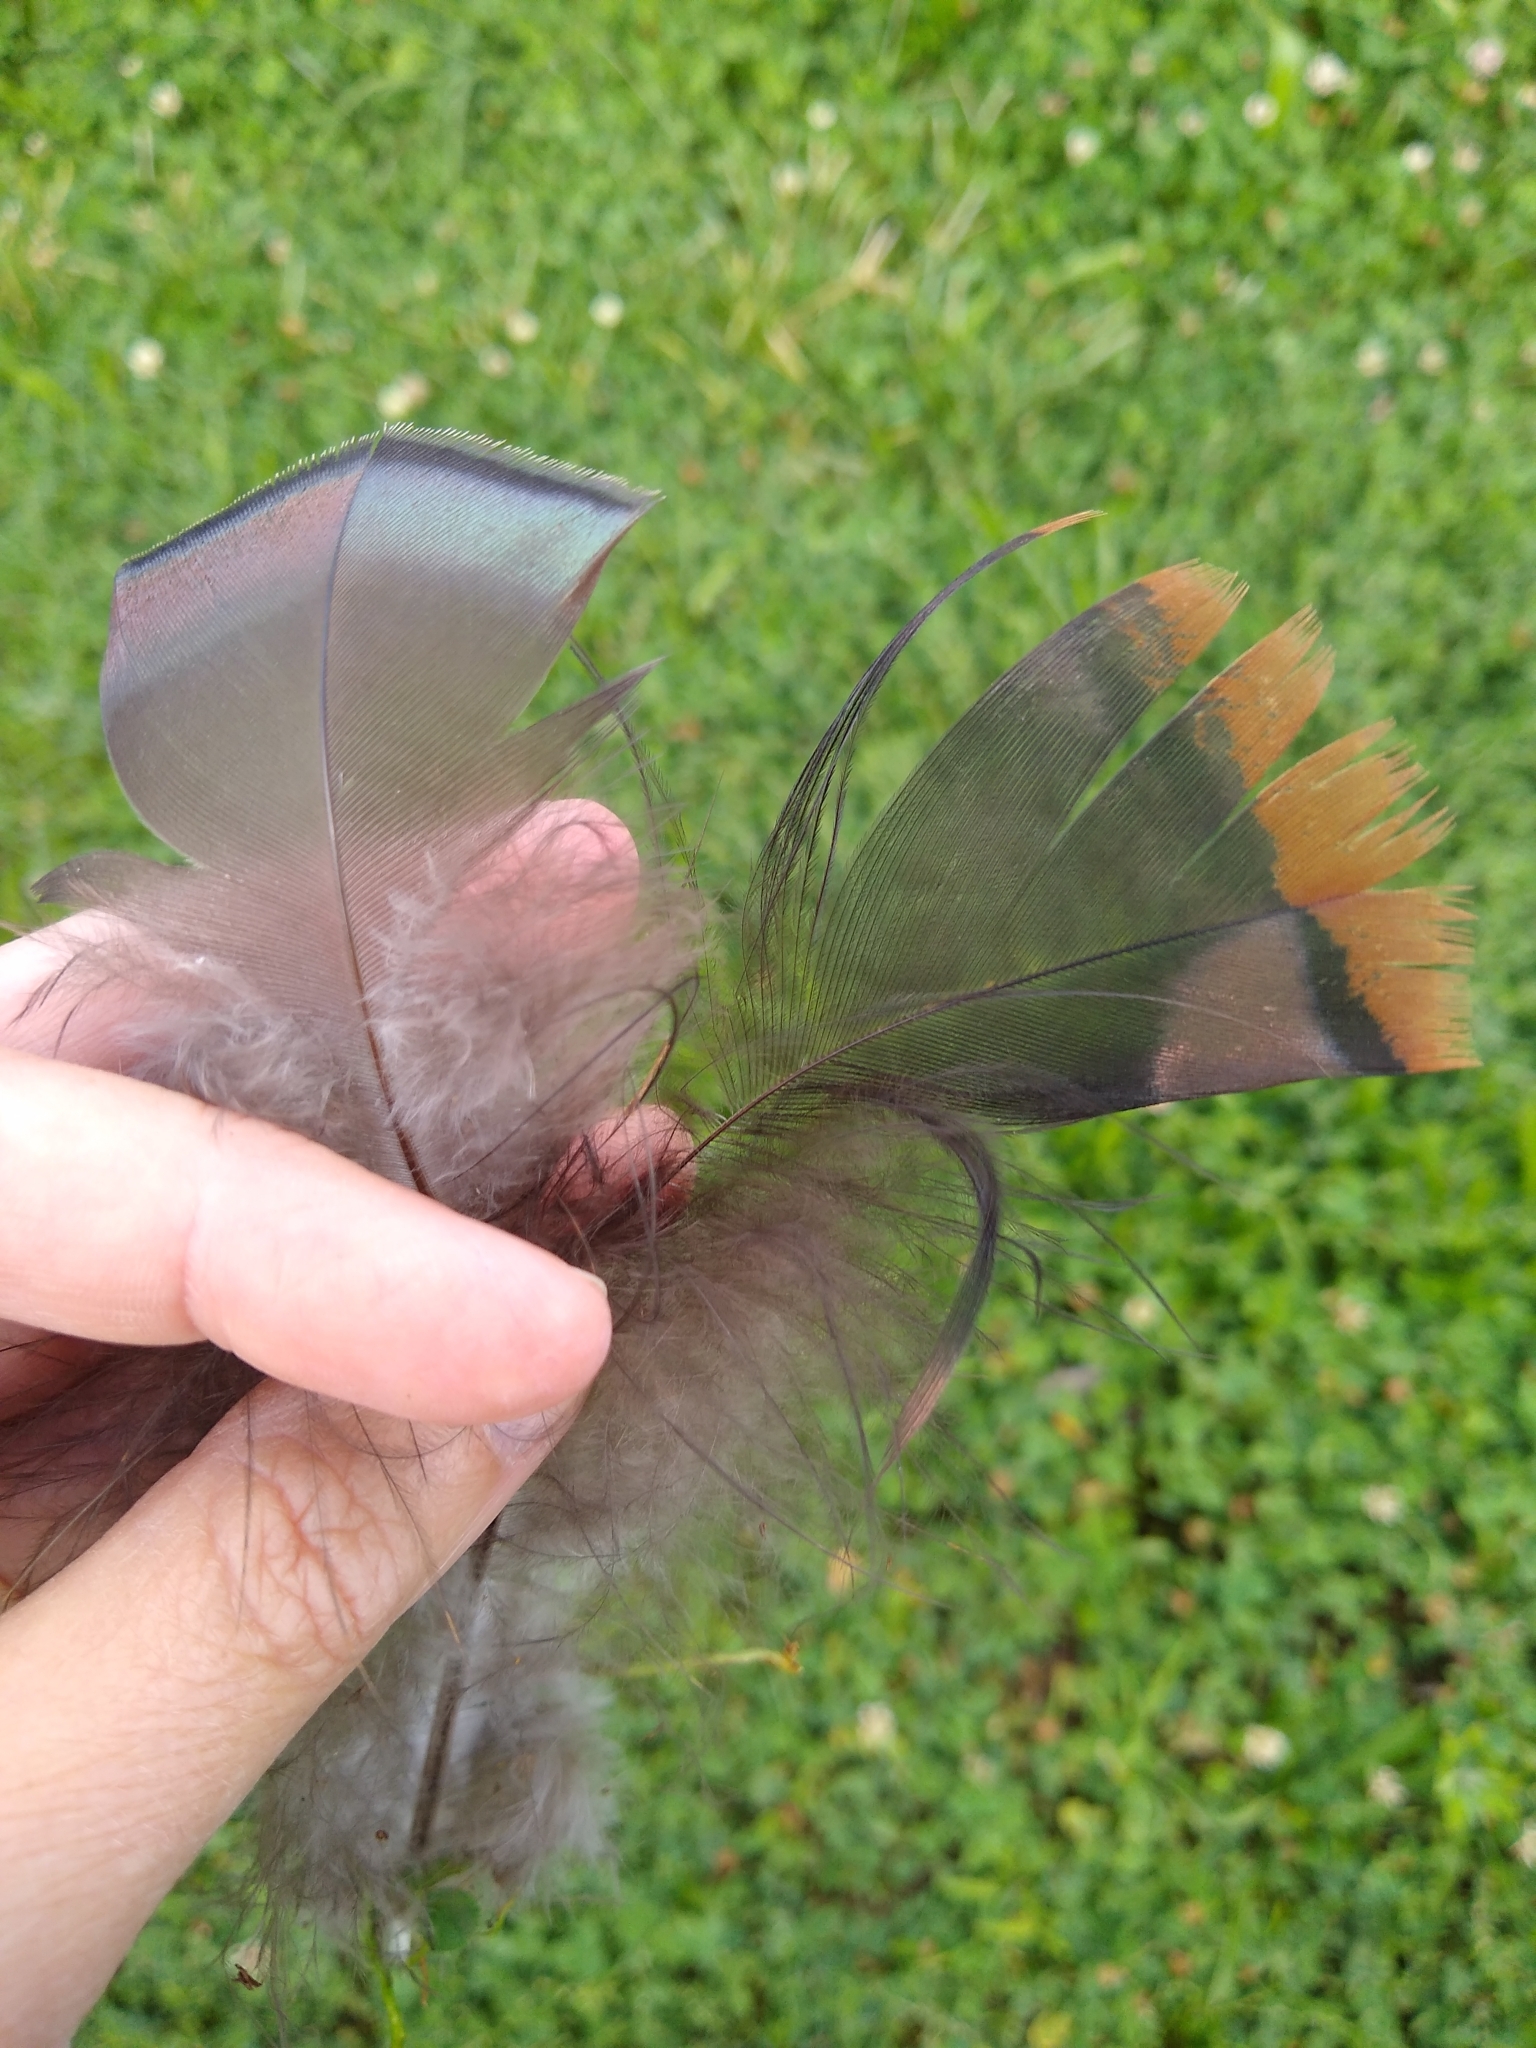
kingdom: Animalia
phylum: Chordata
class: Aves
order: Galliformes
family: Phasianidae
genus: Meleagris
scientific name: Meleagris gallopavo
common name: Wild turkey
